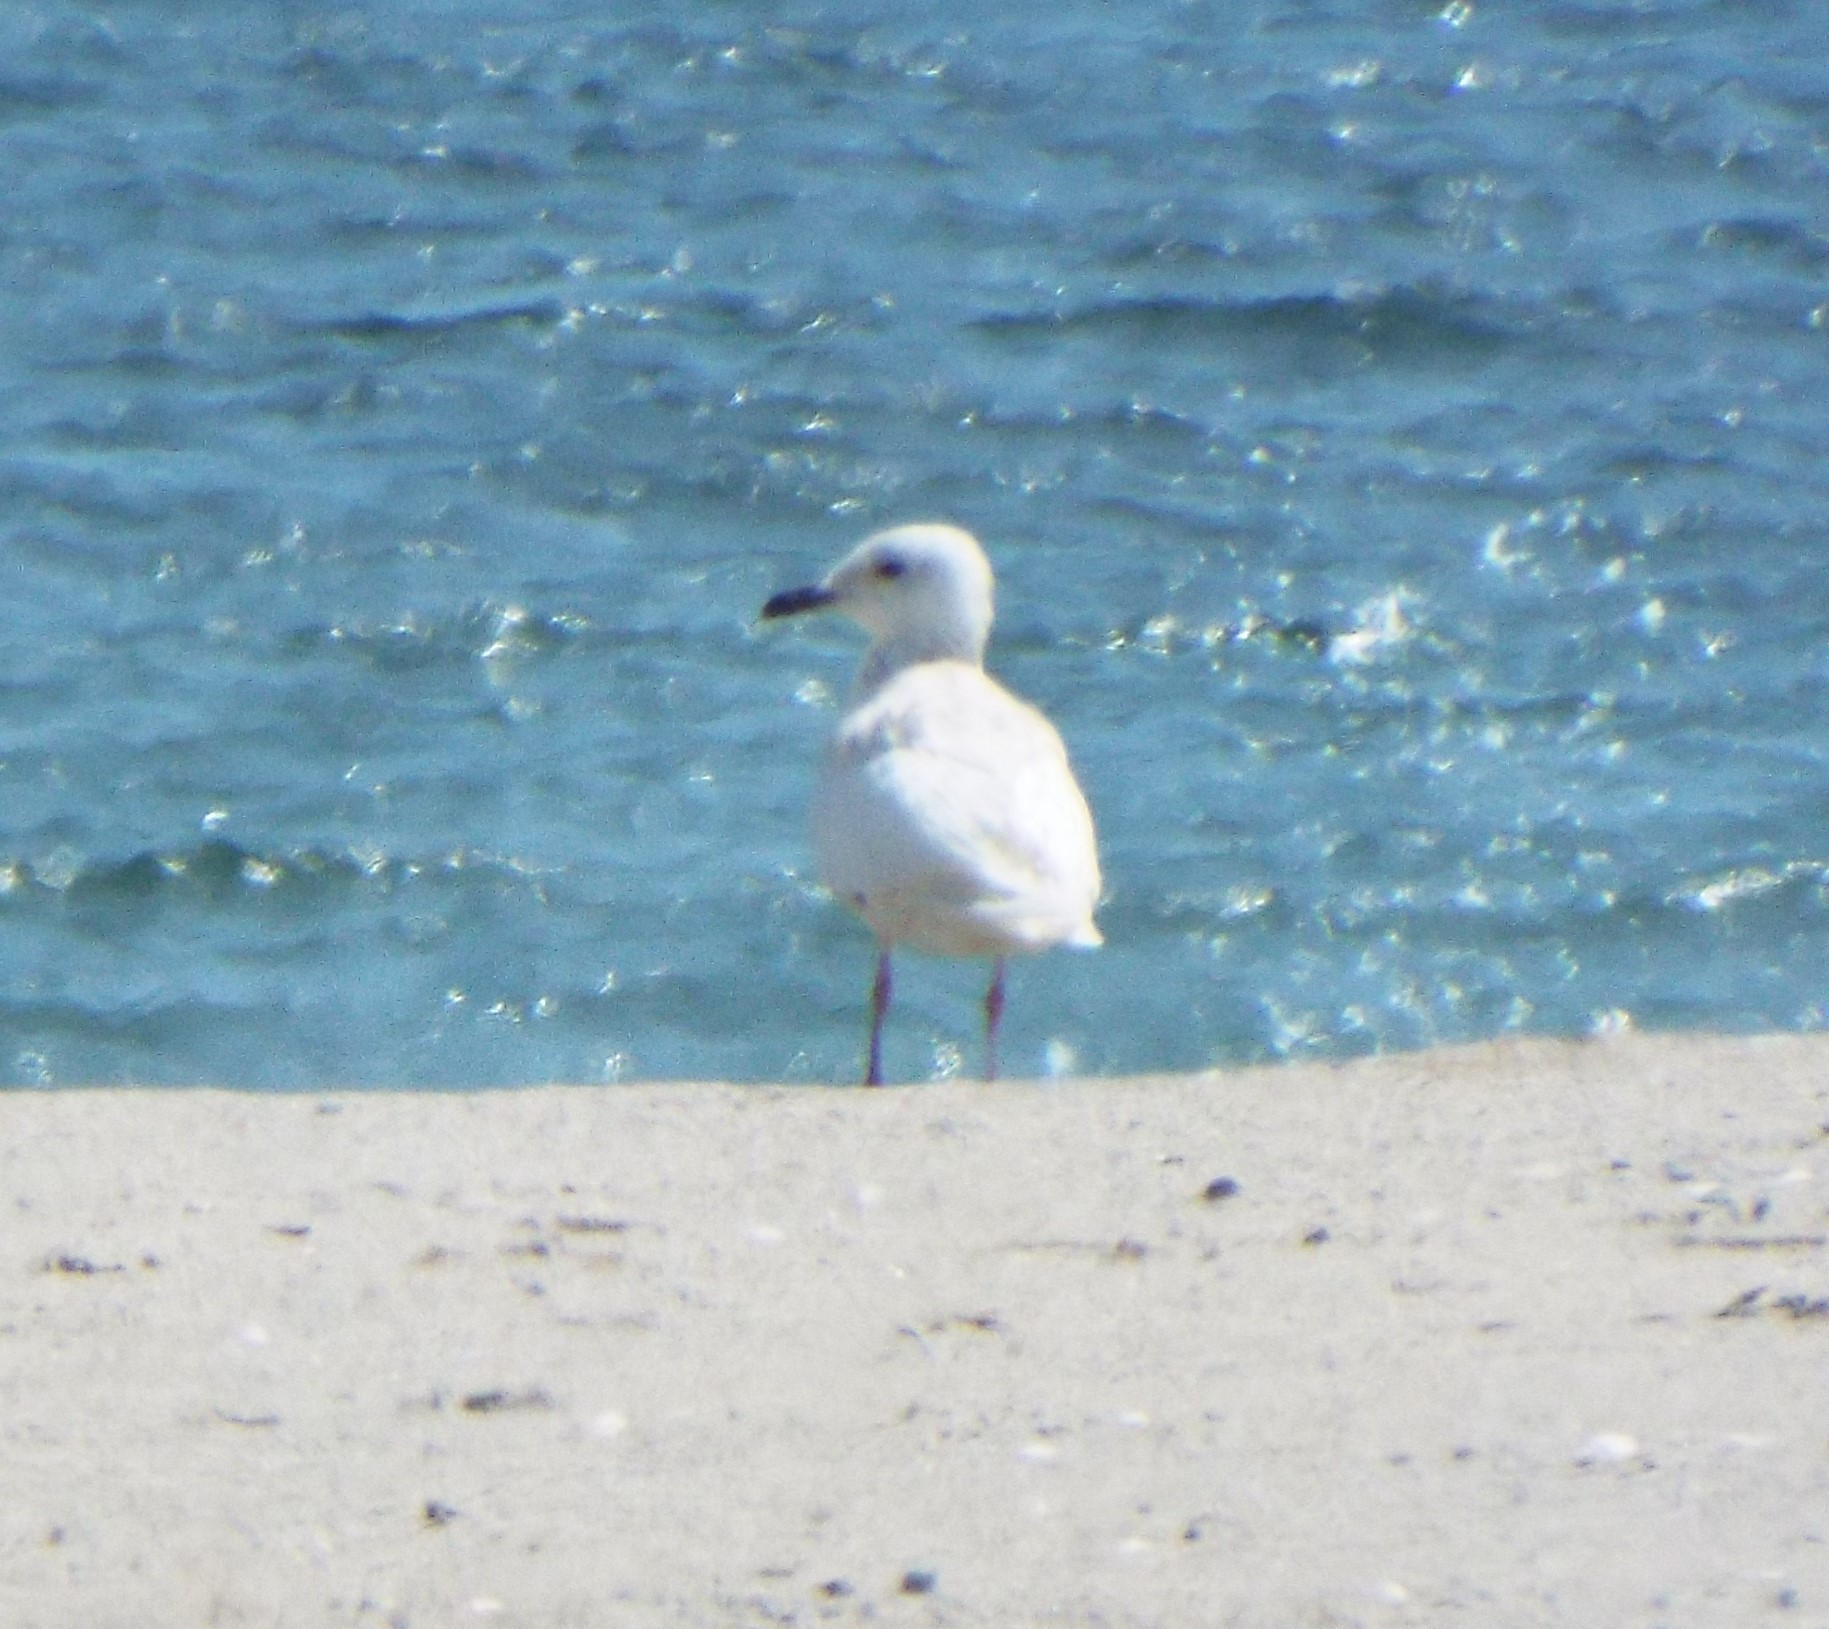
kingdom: Animalia
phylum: Chordata
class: Aves
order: Charadriiformes
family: Laridae
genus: Larus
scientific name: Larus glaucoides
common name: Iceland gull
